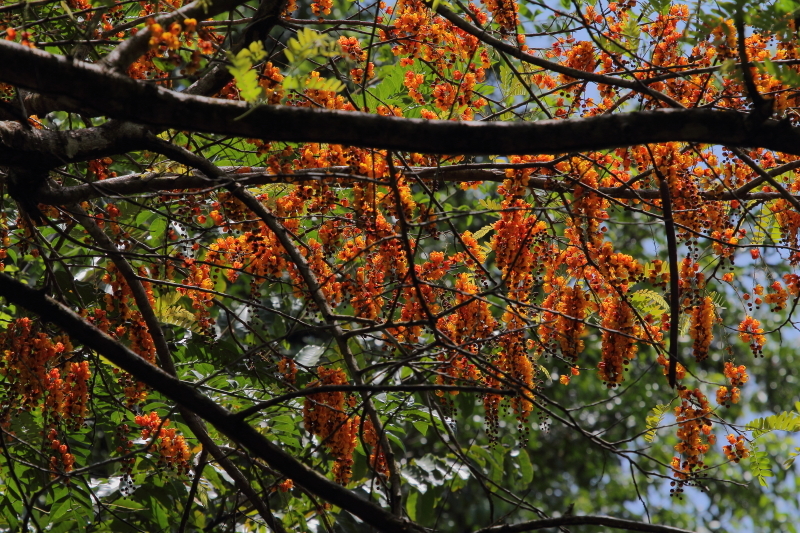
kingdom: Plantae
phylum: Tracheophyta
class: Magnoliopsida
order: Fabales
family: Fabaceae
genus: Cassia
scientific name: Cassia moschata
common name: Bronze shower tree
